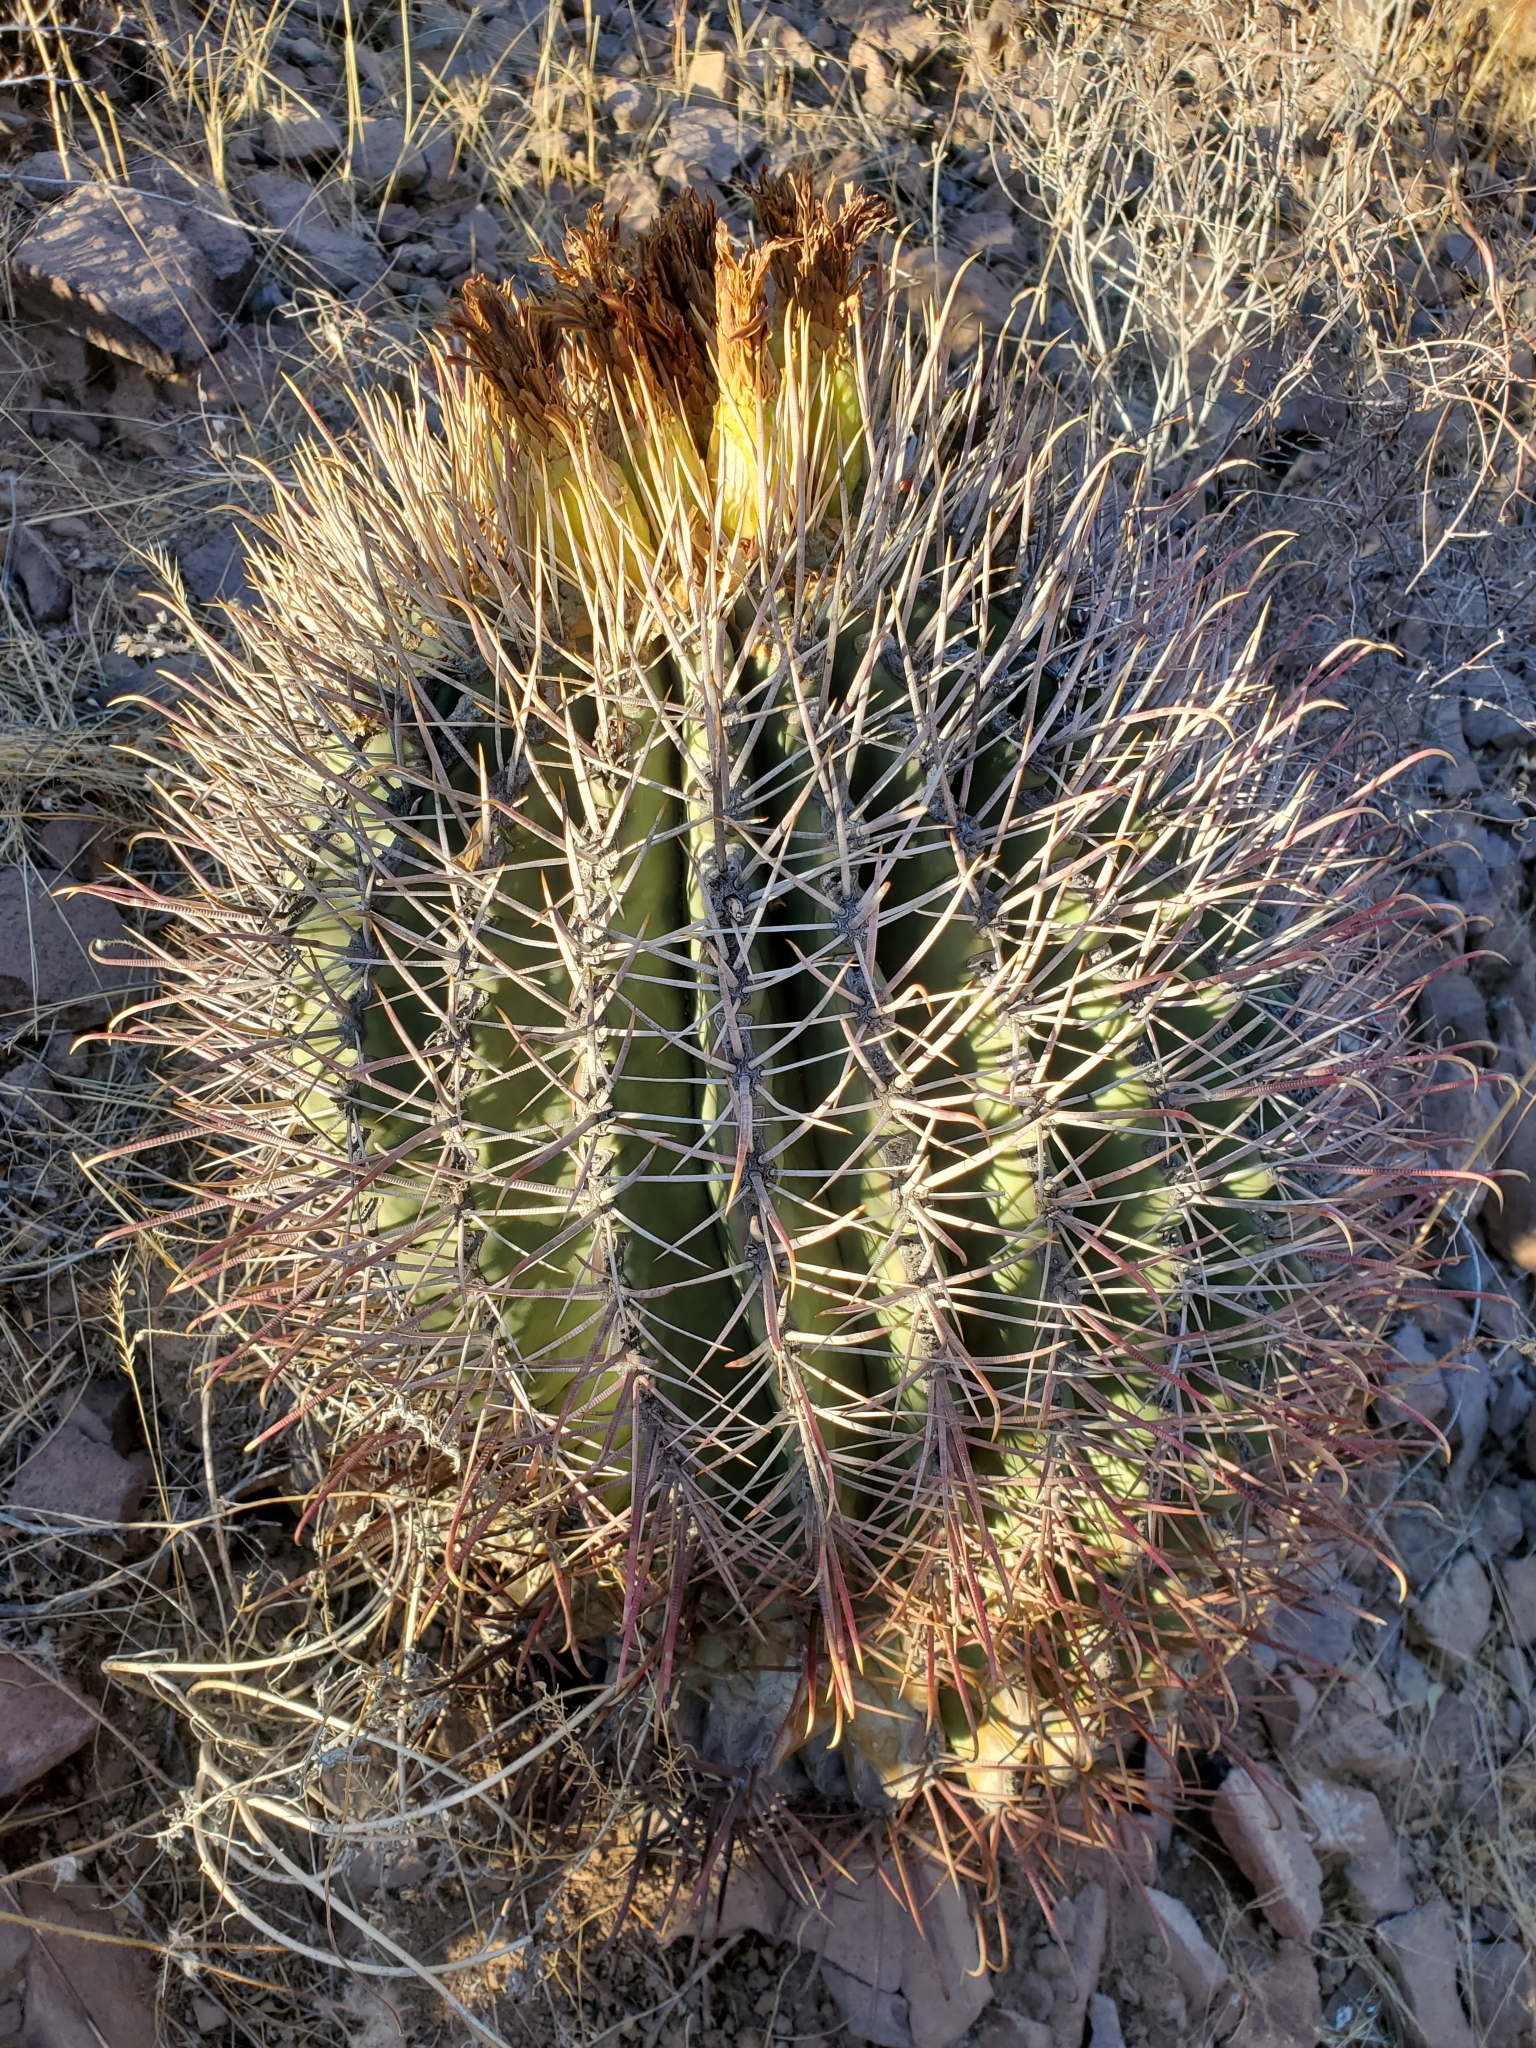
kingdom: Plantae
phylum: Tracheophyta
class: Magnoliopsida
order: Caryophyllales
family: Cactaceae
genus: Ferocactus
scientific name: Ferocactus emoryi
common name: Emory's barrel cactus
